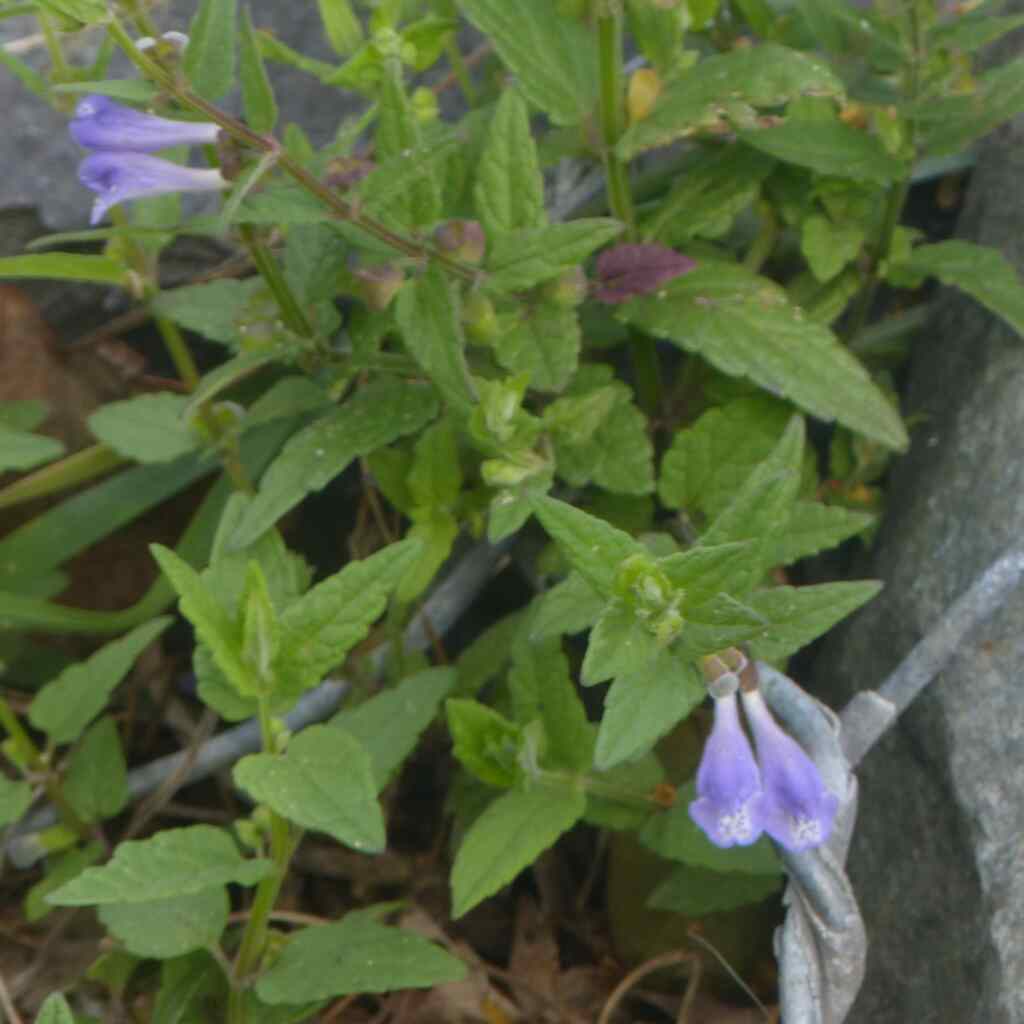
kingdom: Plantae
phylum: Tracheophyta
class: Magnoliopsida
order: Lamiales
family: Lamiaceae
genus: Scutellaria
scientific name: Scutellaria galericulata
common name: Skullcap
